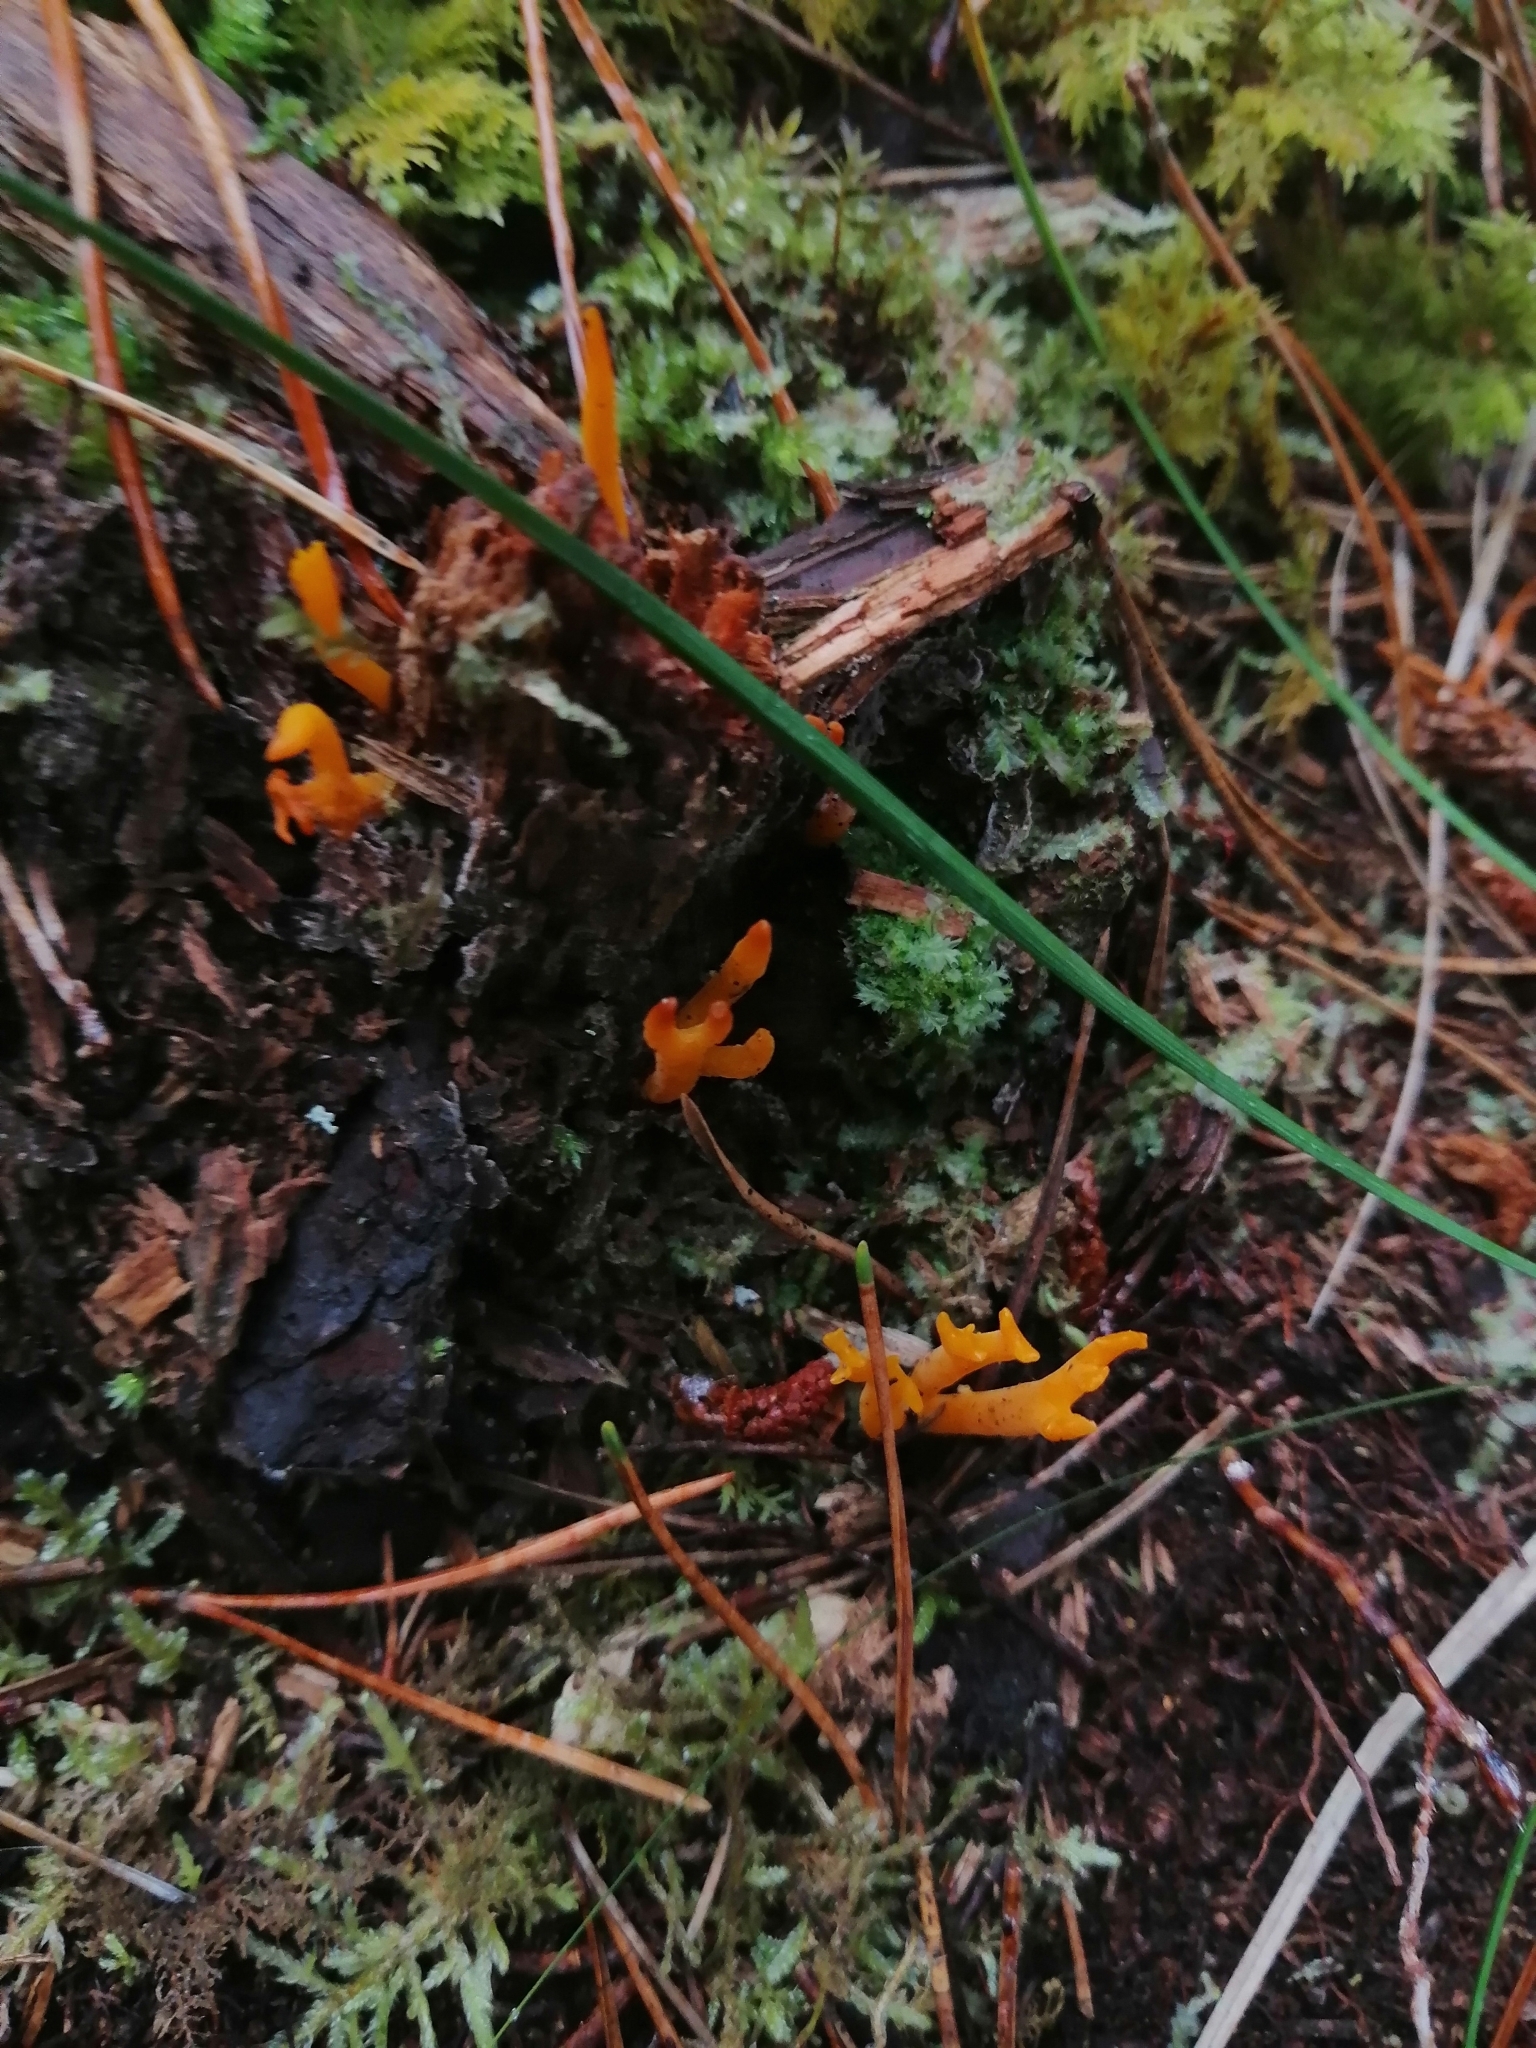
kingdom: Fungi
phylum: Basidiomycota
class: Dacrymycetes
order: Dacrymycetales
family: Dacrymycetaceae
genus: Calocera
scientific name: Calocera viscosa
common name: Yellow stagshorn
